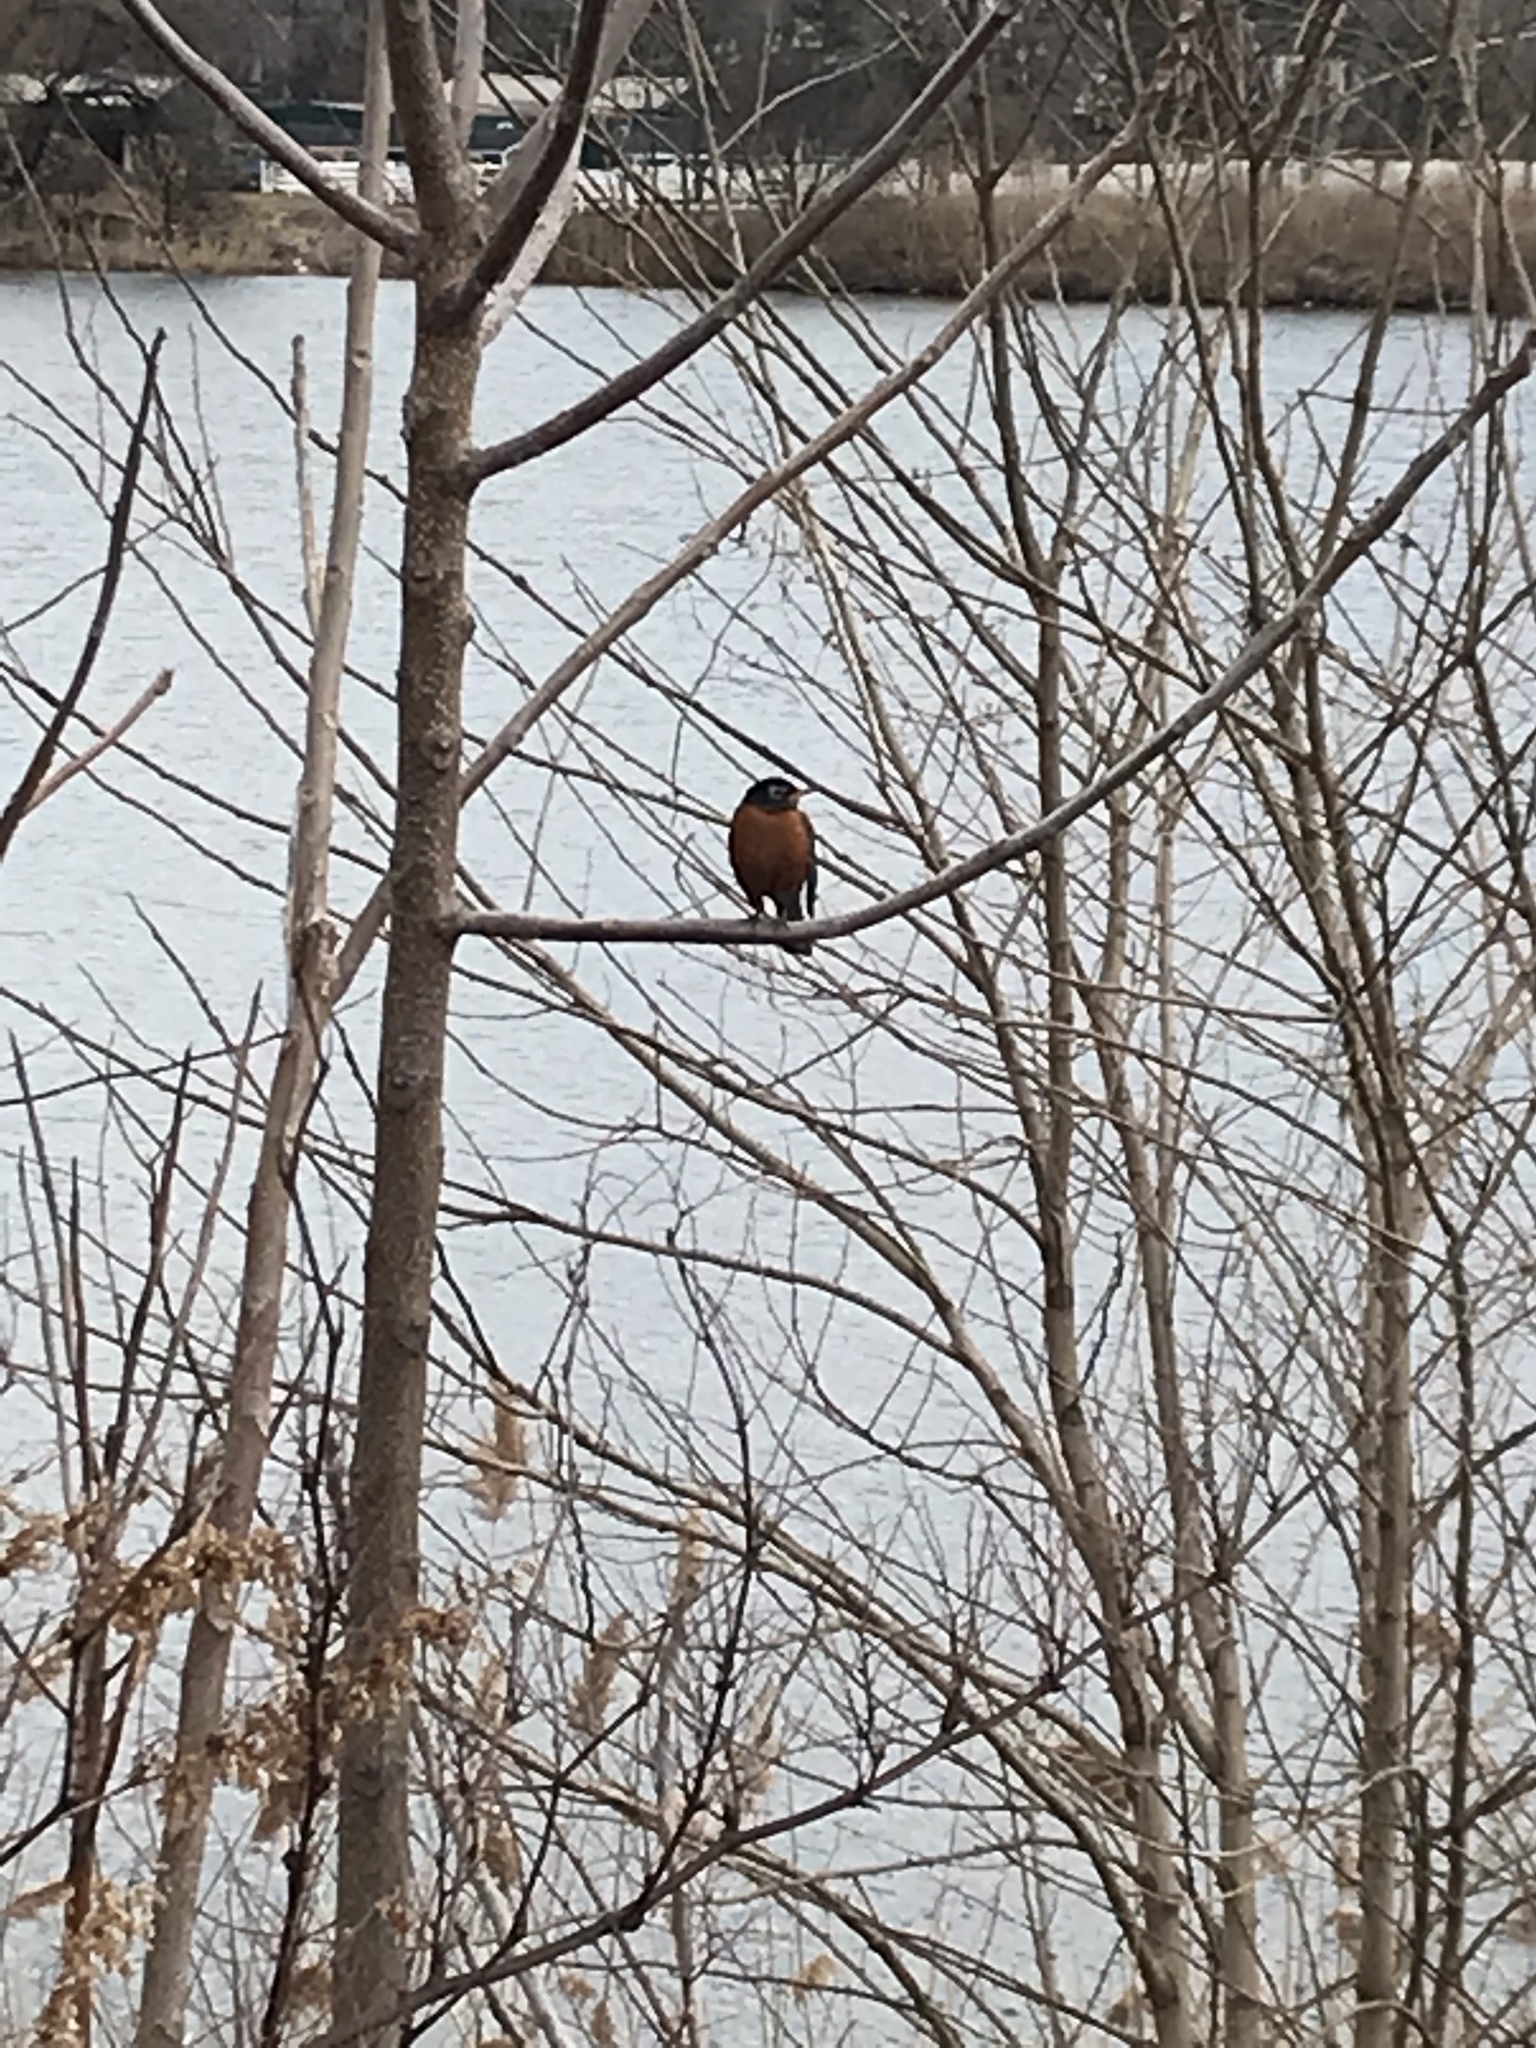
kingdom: Animalia
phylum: Chordata
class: Aves
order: Passeriformes
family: Turdidae
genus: Turdus
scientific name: Turdus migratorius
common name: American robin
